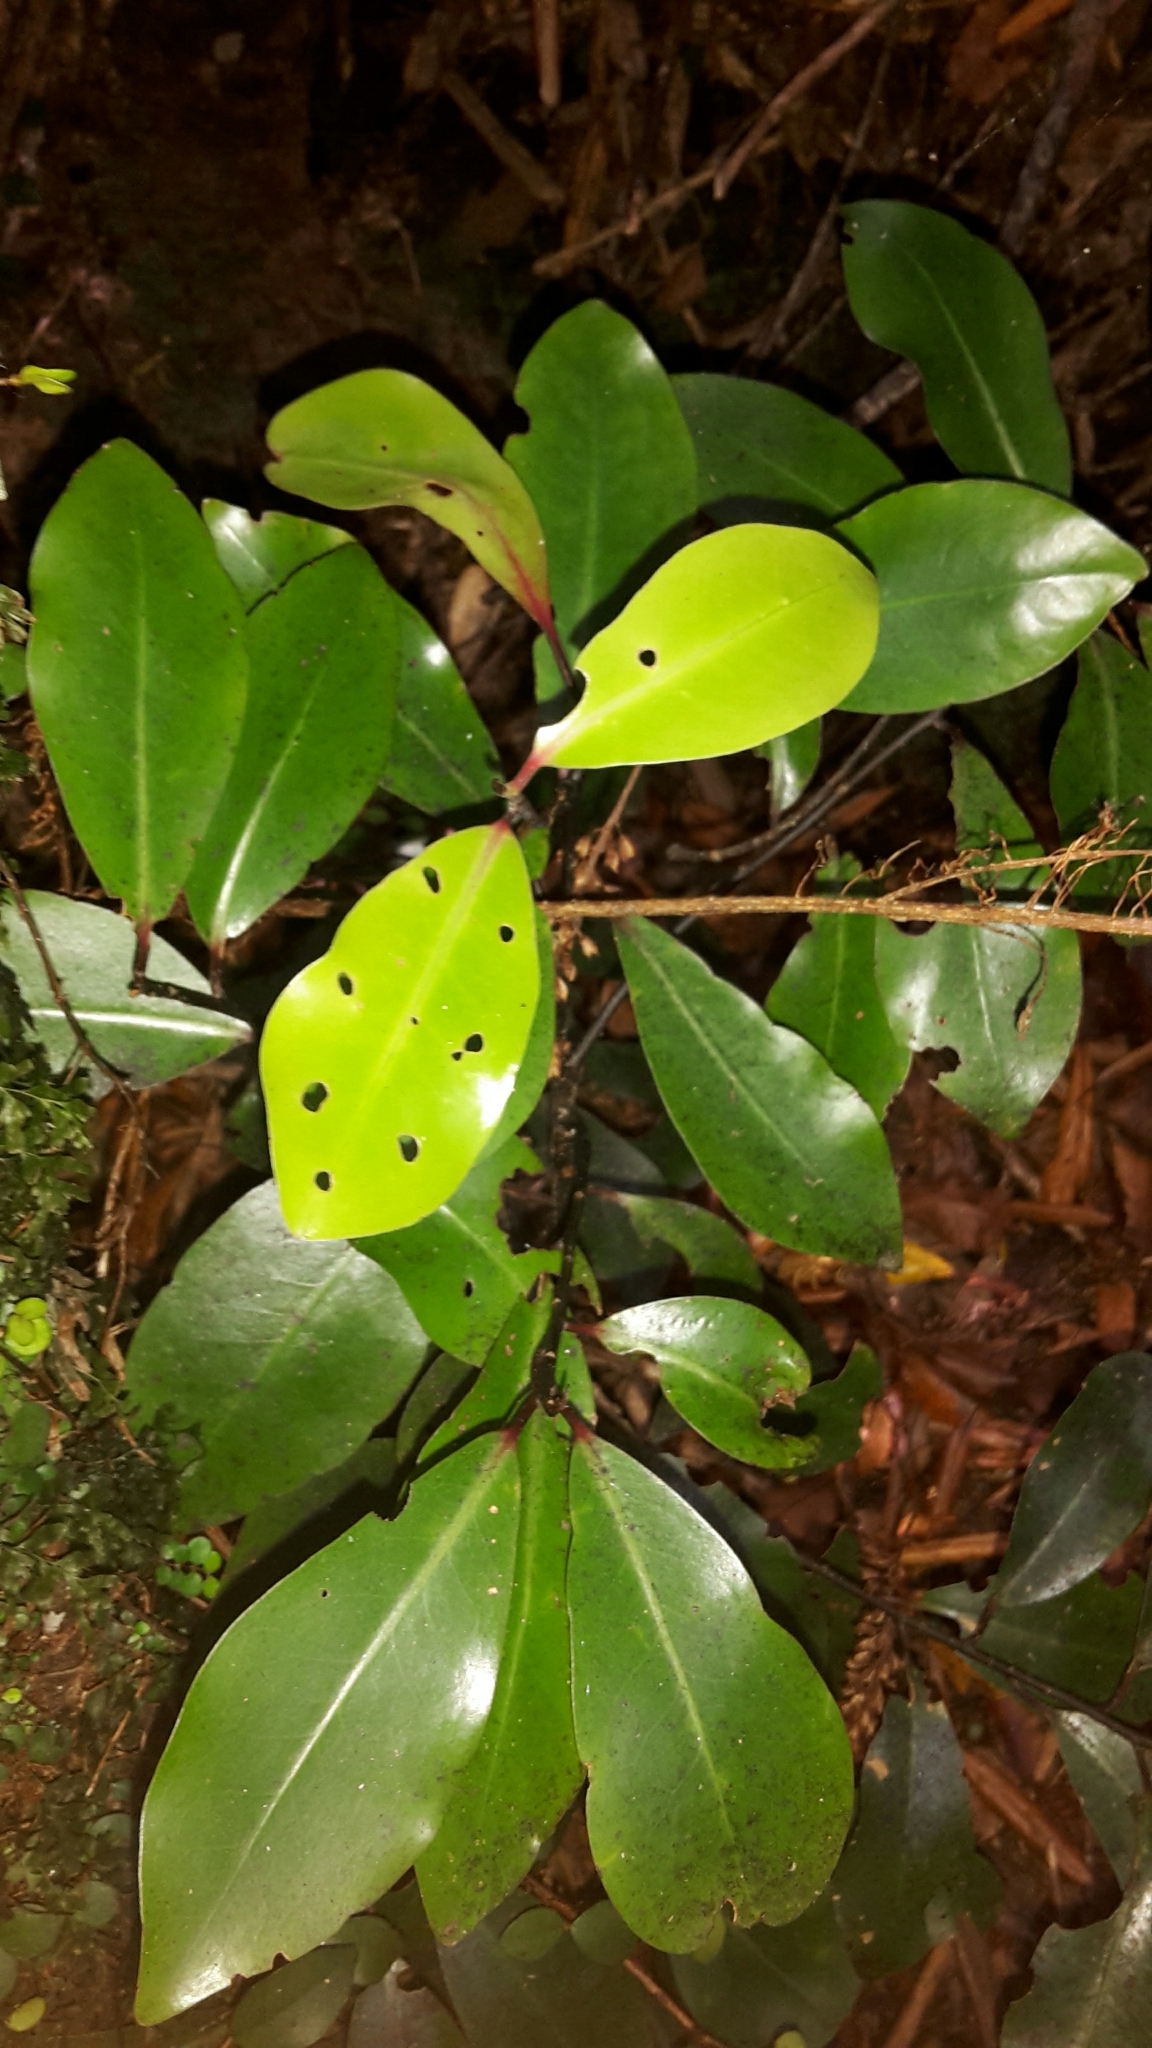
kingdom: Plantae
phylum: Tracheophyta
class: Magnoliopsida
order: Canellales
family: Winteraceae
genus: Pseudowintera
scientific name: Pseudowintera axillaris
